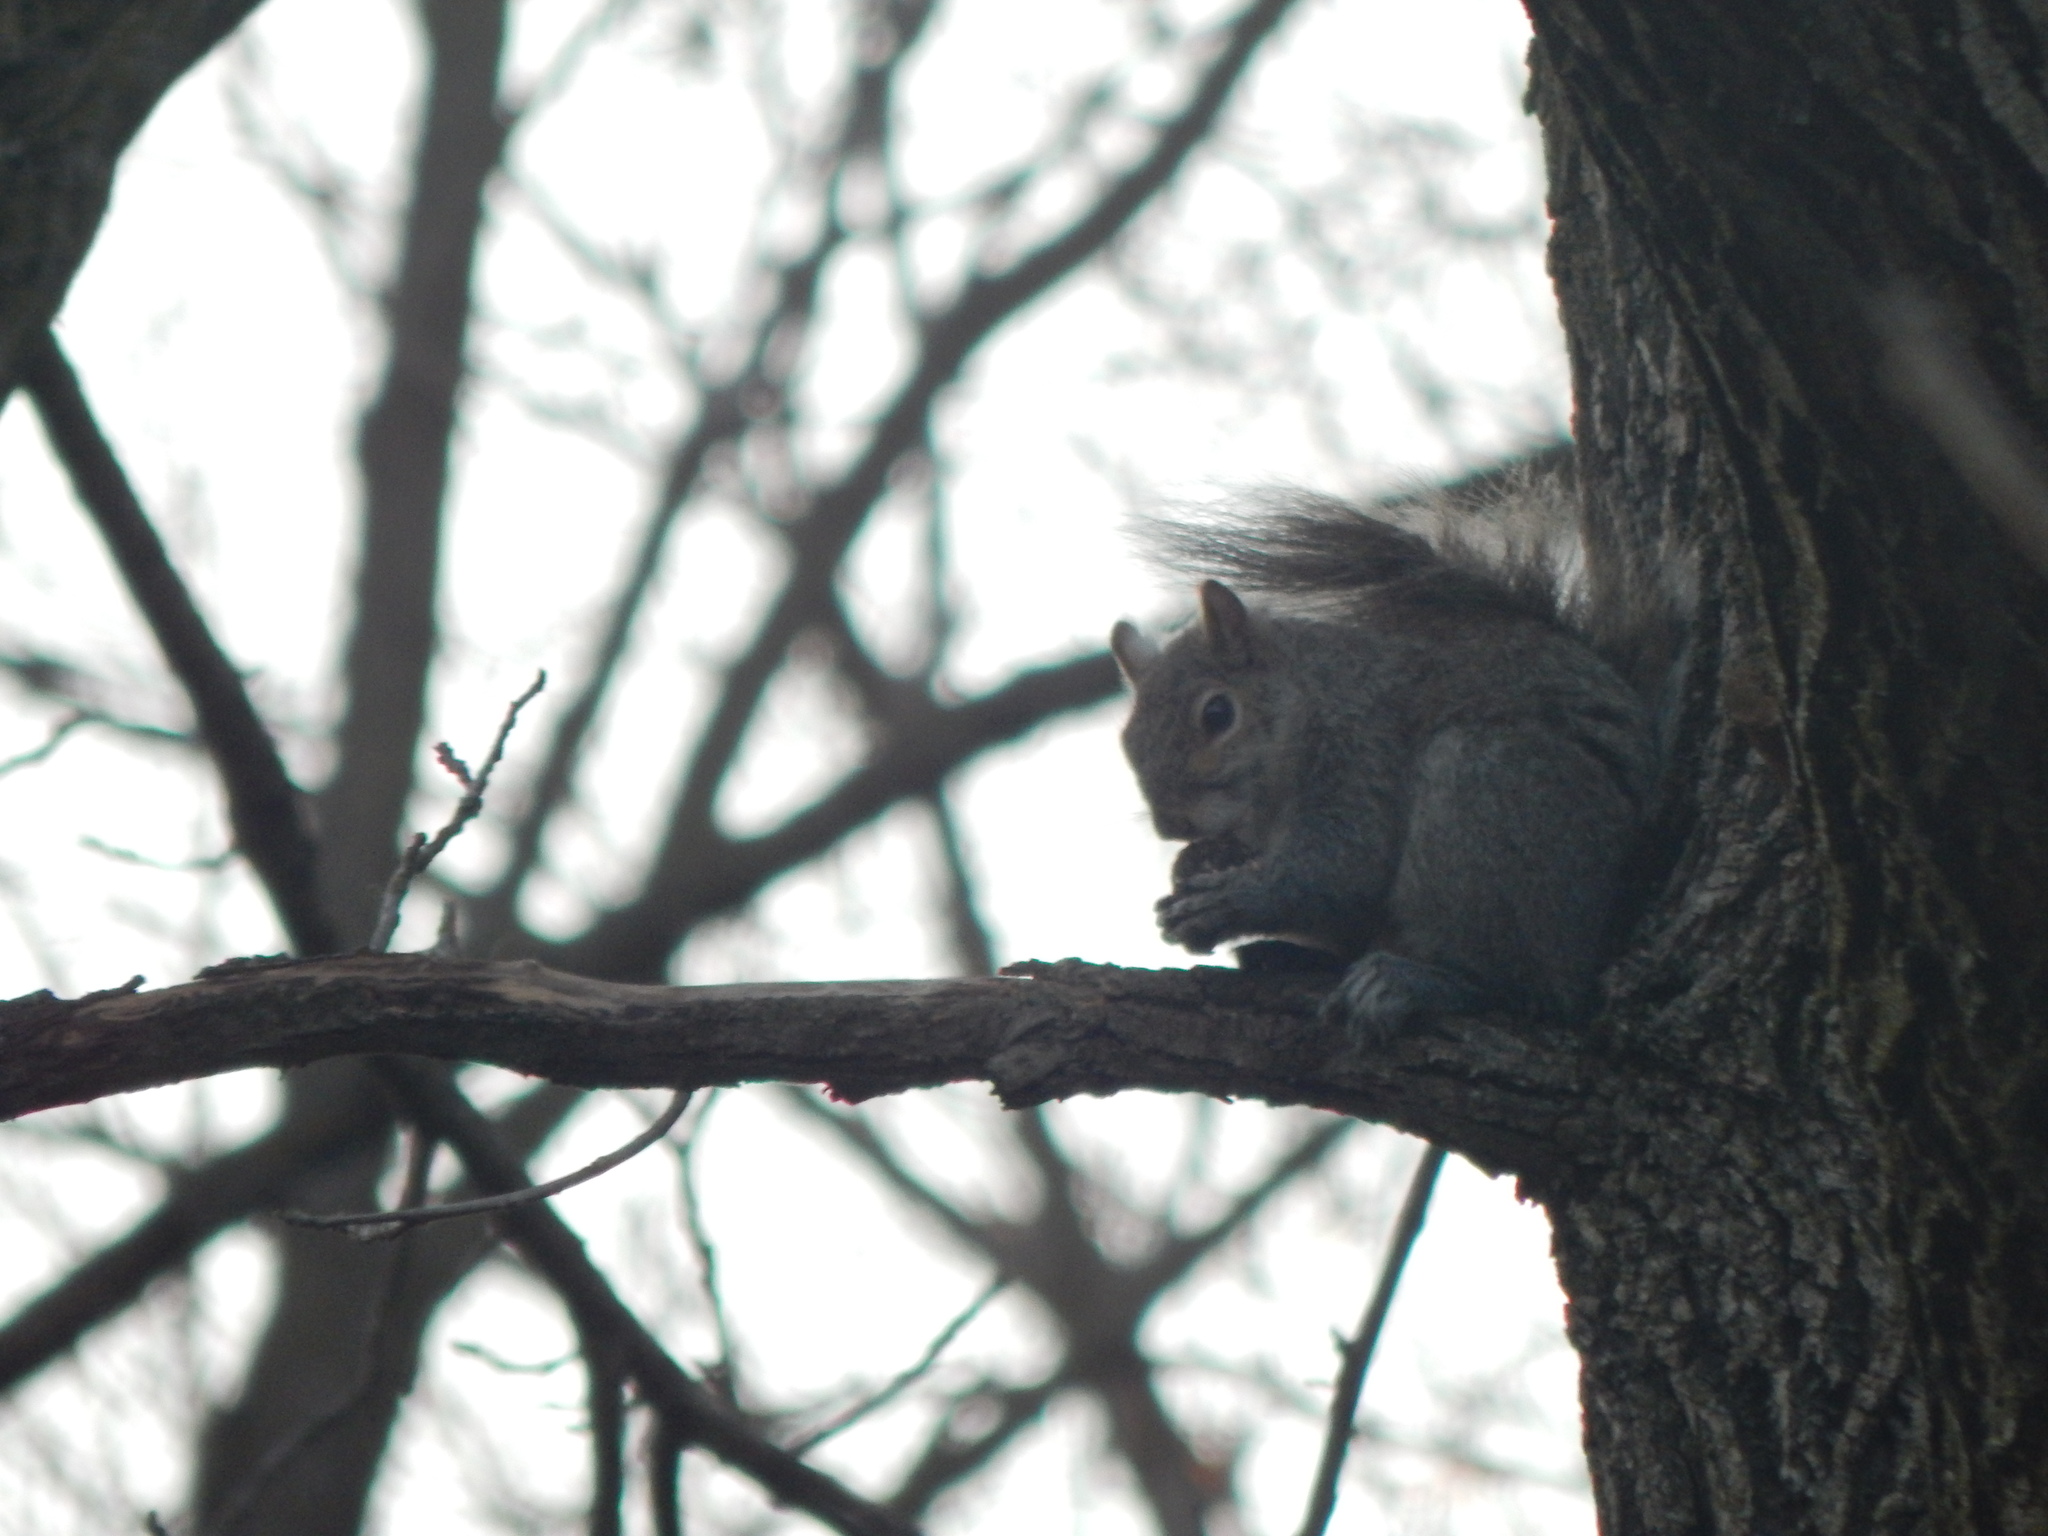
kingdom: Animalia
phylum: Chordata
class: Mammalia
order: Rodentia
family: Sciuridae
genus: Sciurus
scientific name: Sciurus carolinensis
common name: Eastern gray squirrel
